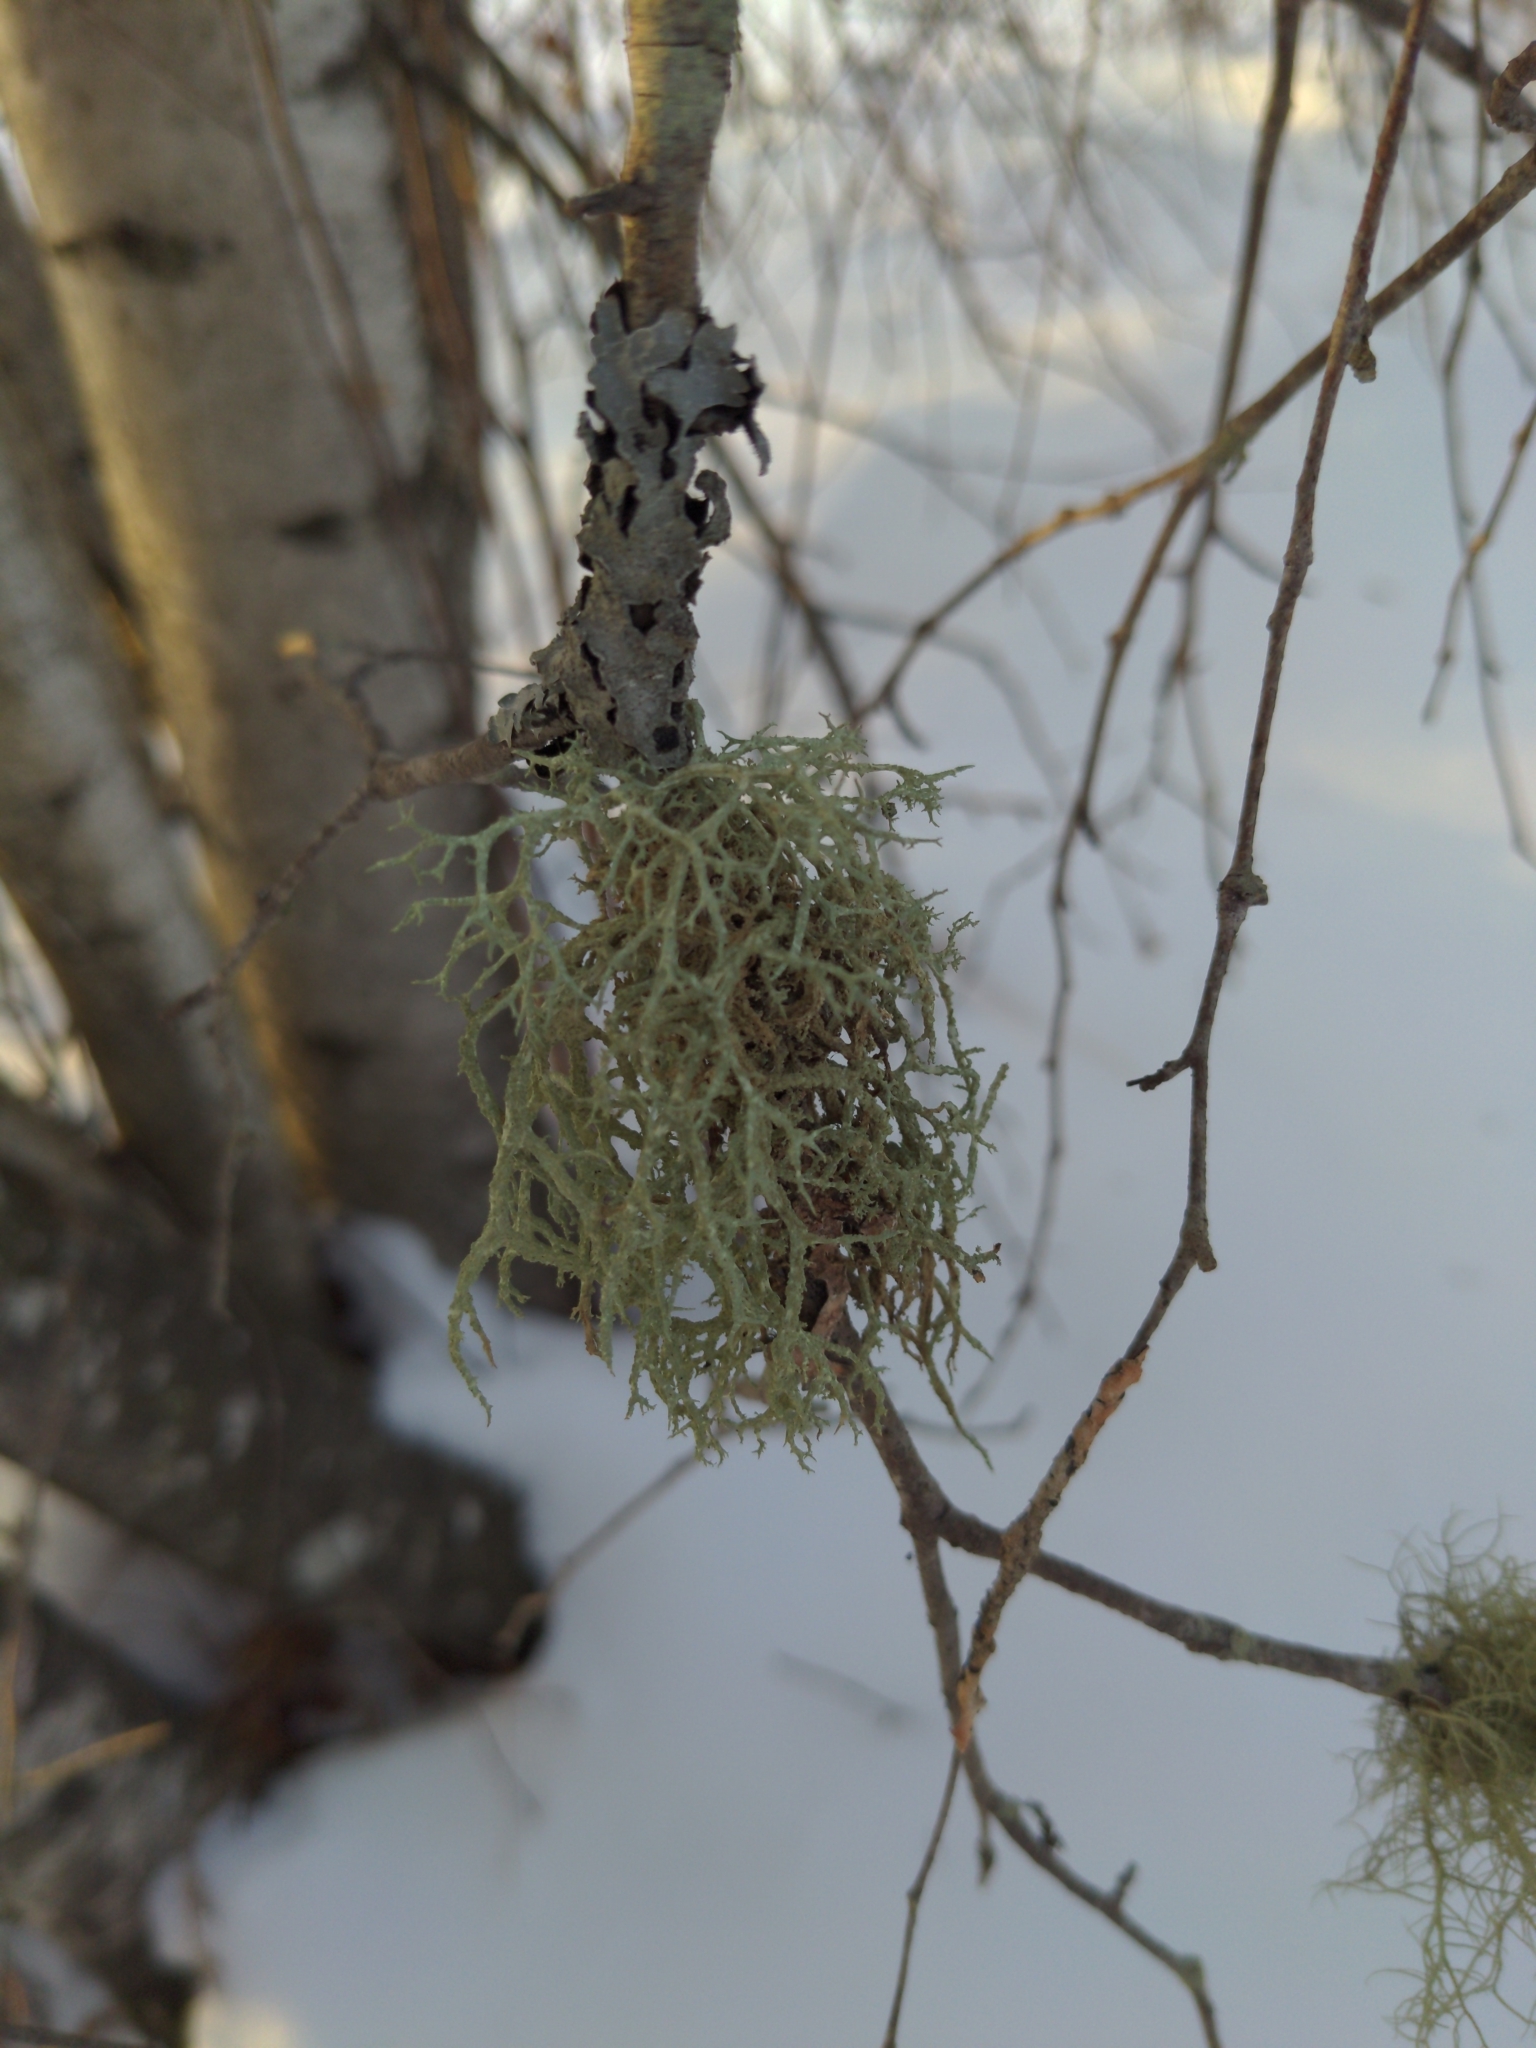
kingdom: Fungi
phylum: Ascomycota
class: Lecanoromycetes
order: Lecanorales
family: Parmeliaceae
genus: Evernia
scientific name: Evernia mesomorpha
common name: Boreal oak moss lichen
